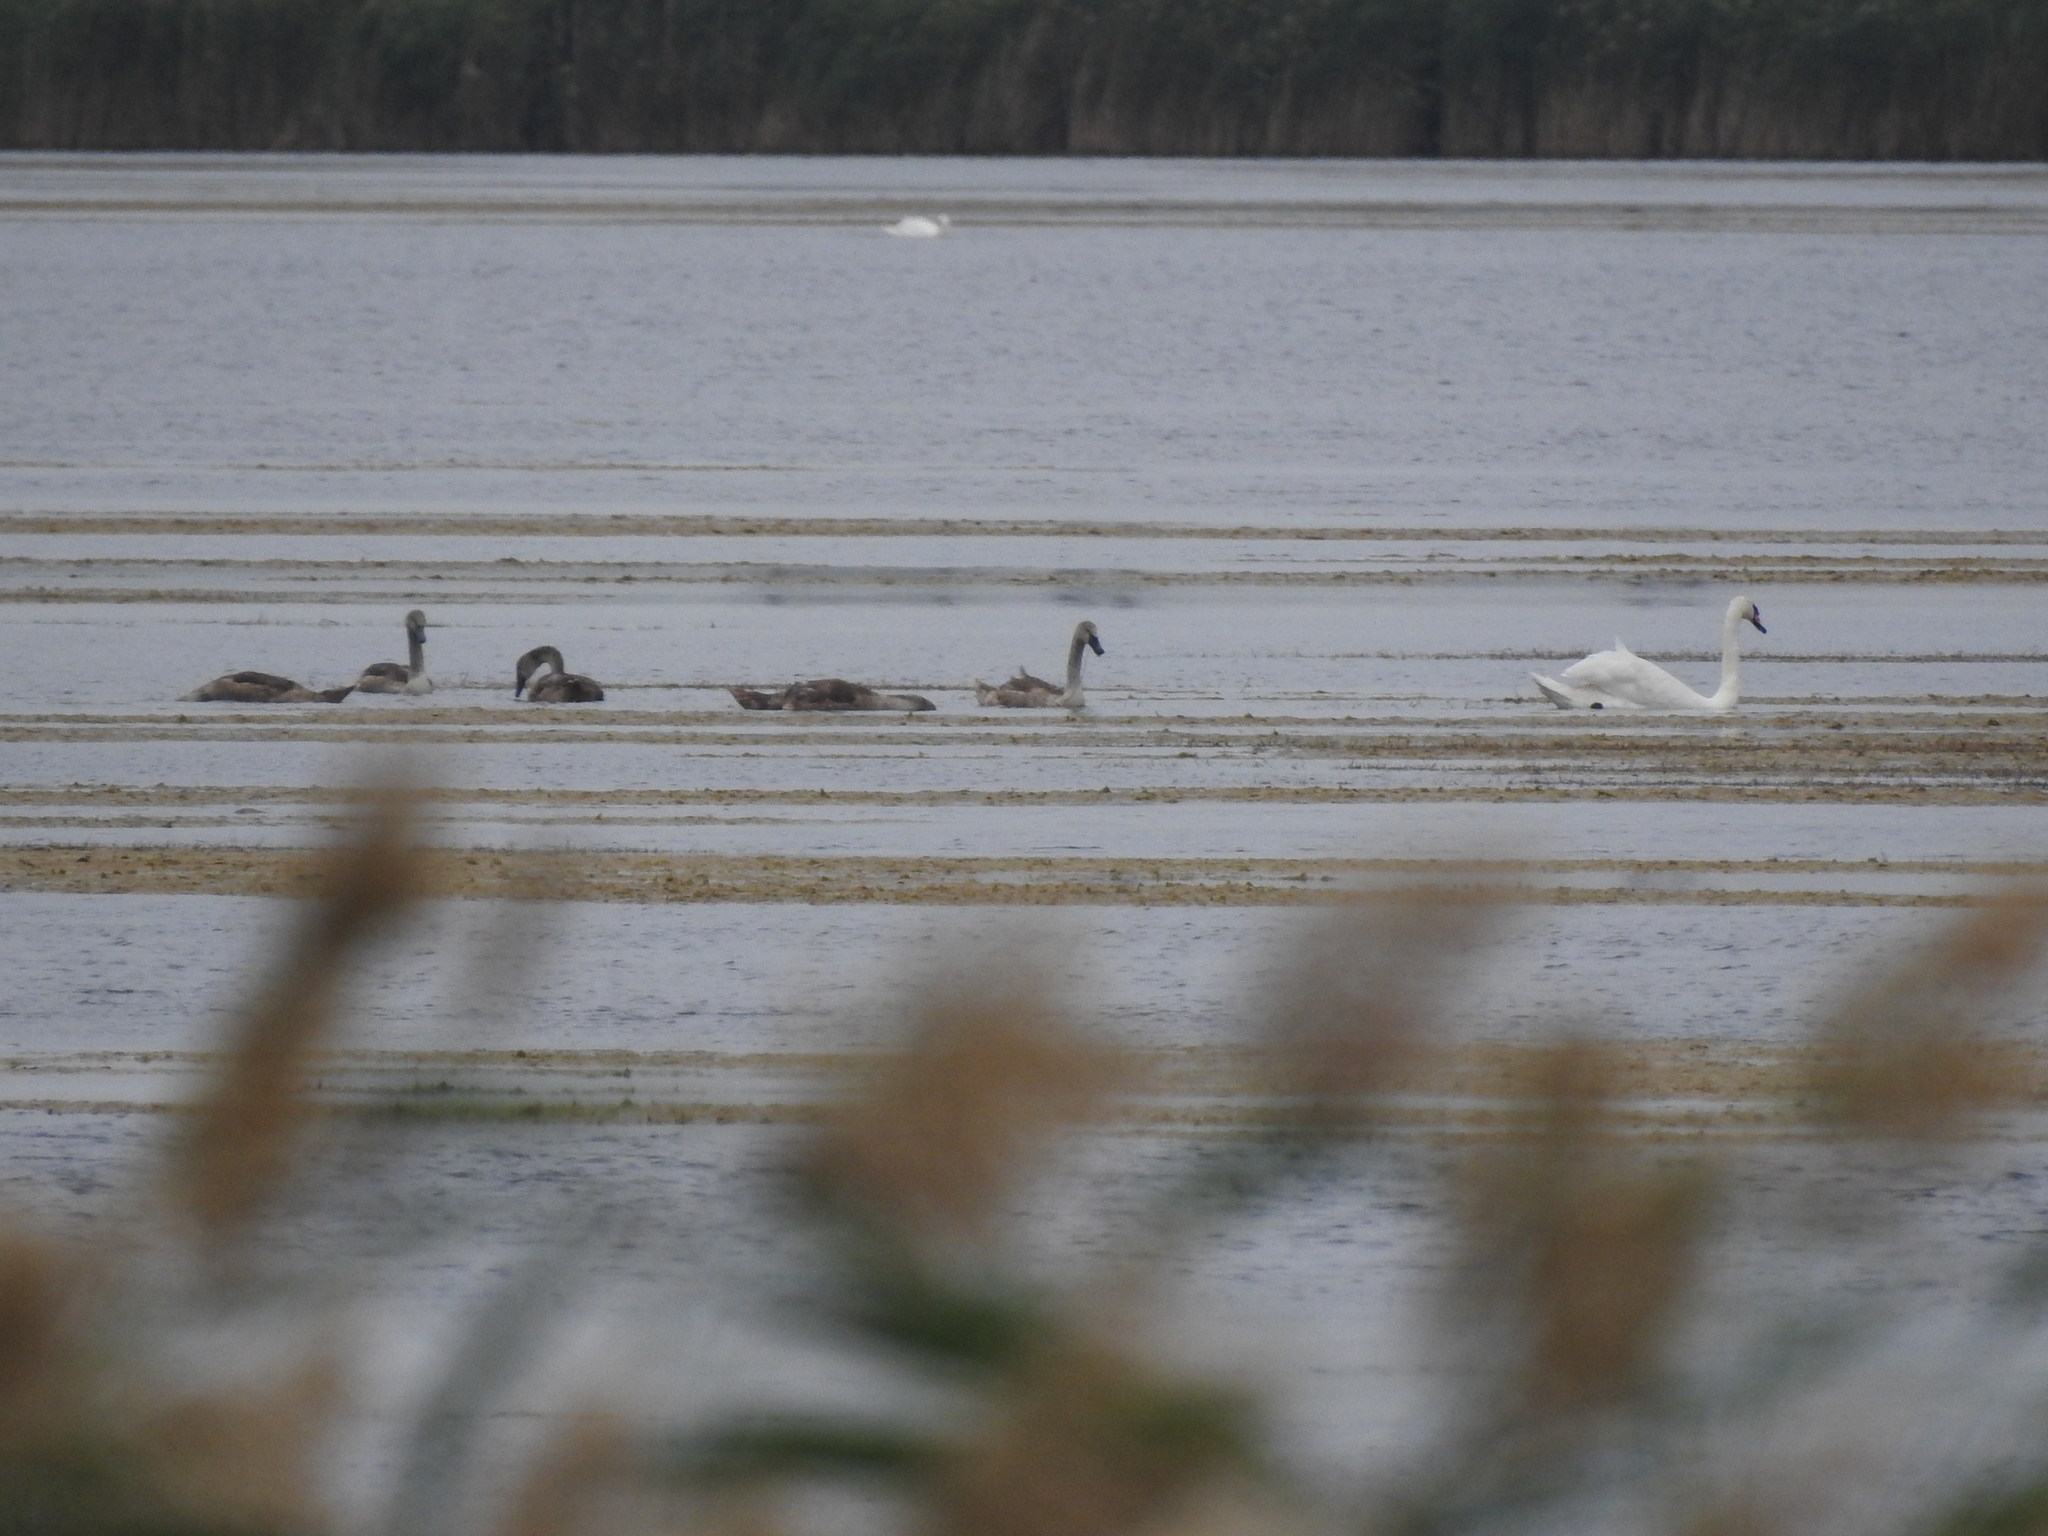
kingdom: Animalia
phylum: Chordata
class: Aves
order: Anseriformes
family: Anatidae
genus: Cygnus
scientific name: Cygnus olor
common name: Mute swan
